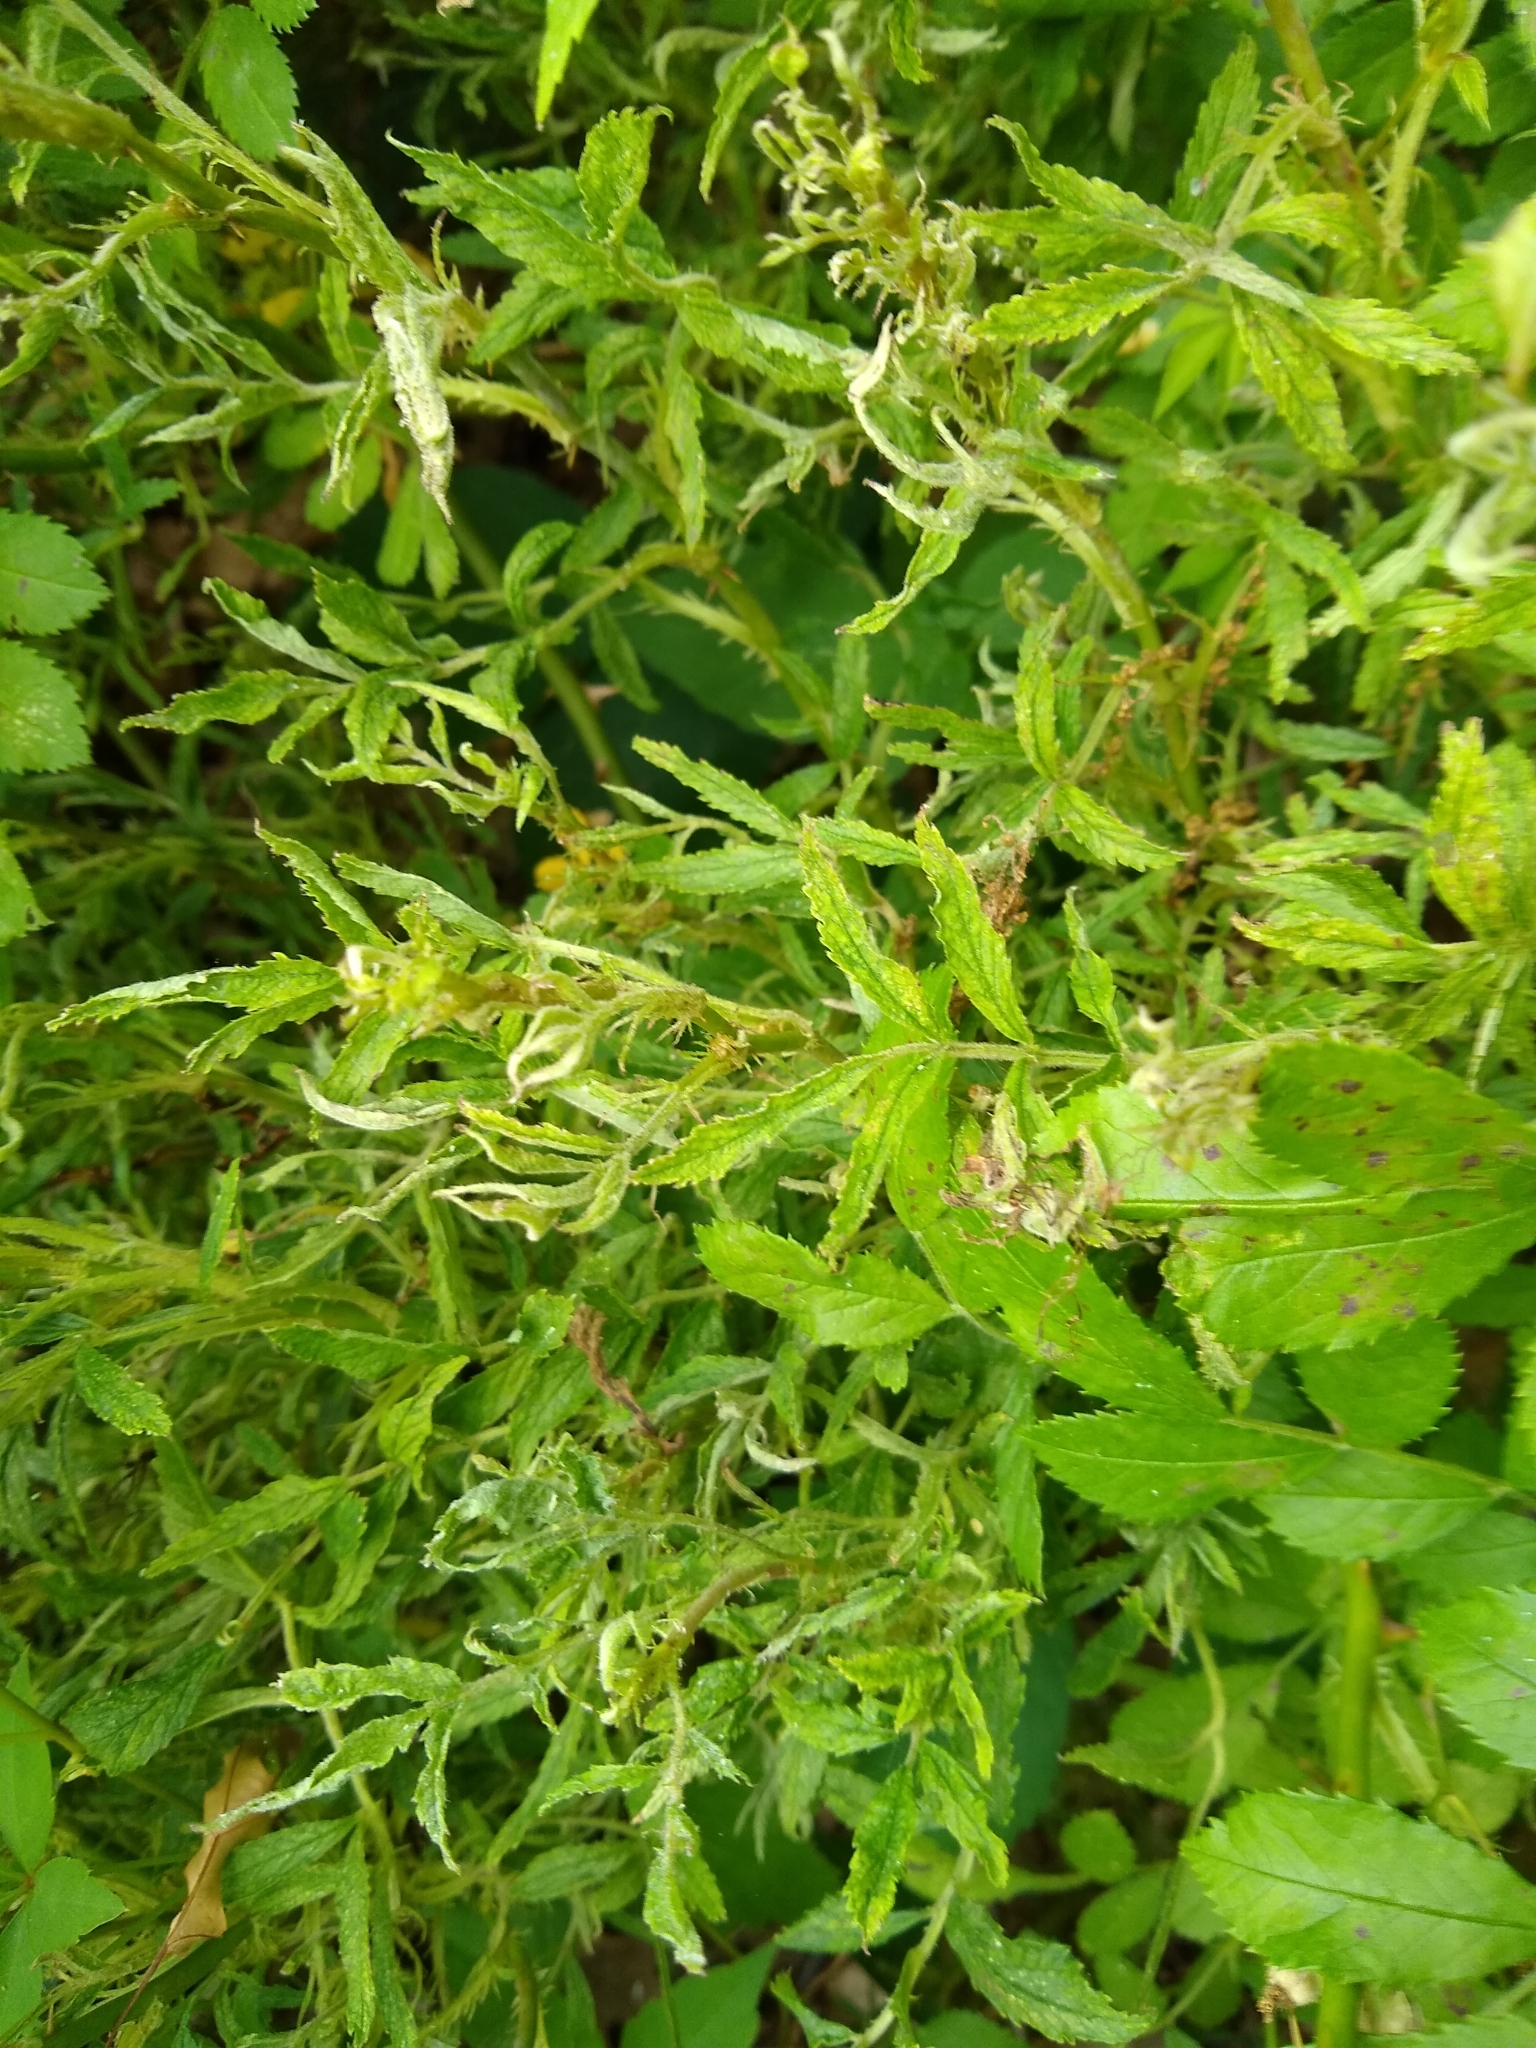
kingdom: Viruses
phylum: Negarnaviricota
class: Ellioviricetes
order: Bunyavirales
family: Fimoviridae
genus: Emaravirus
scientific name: Emaravirus rosae
